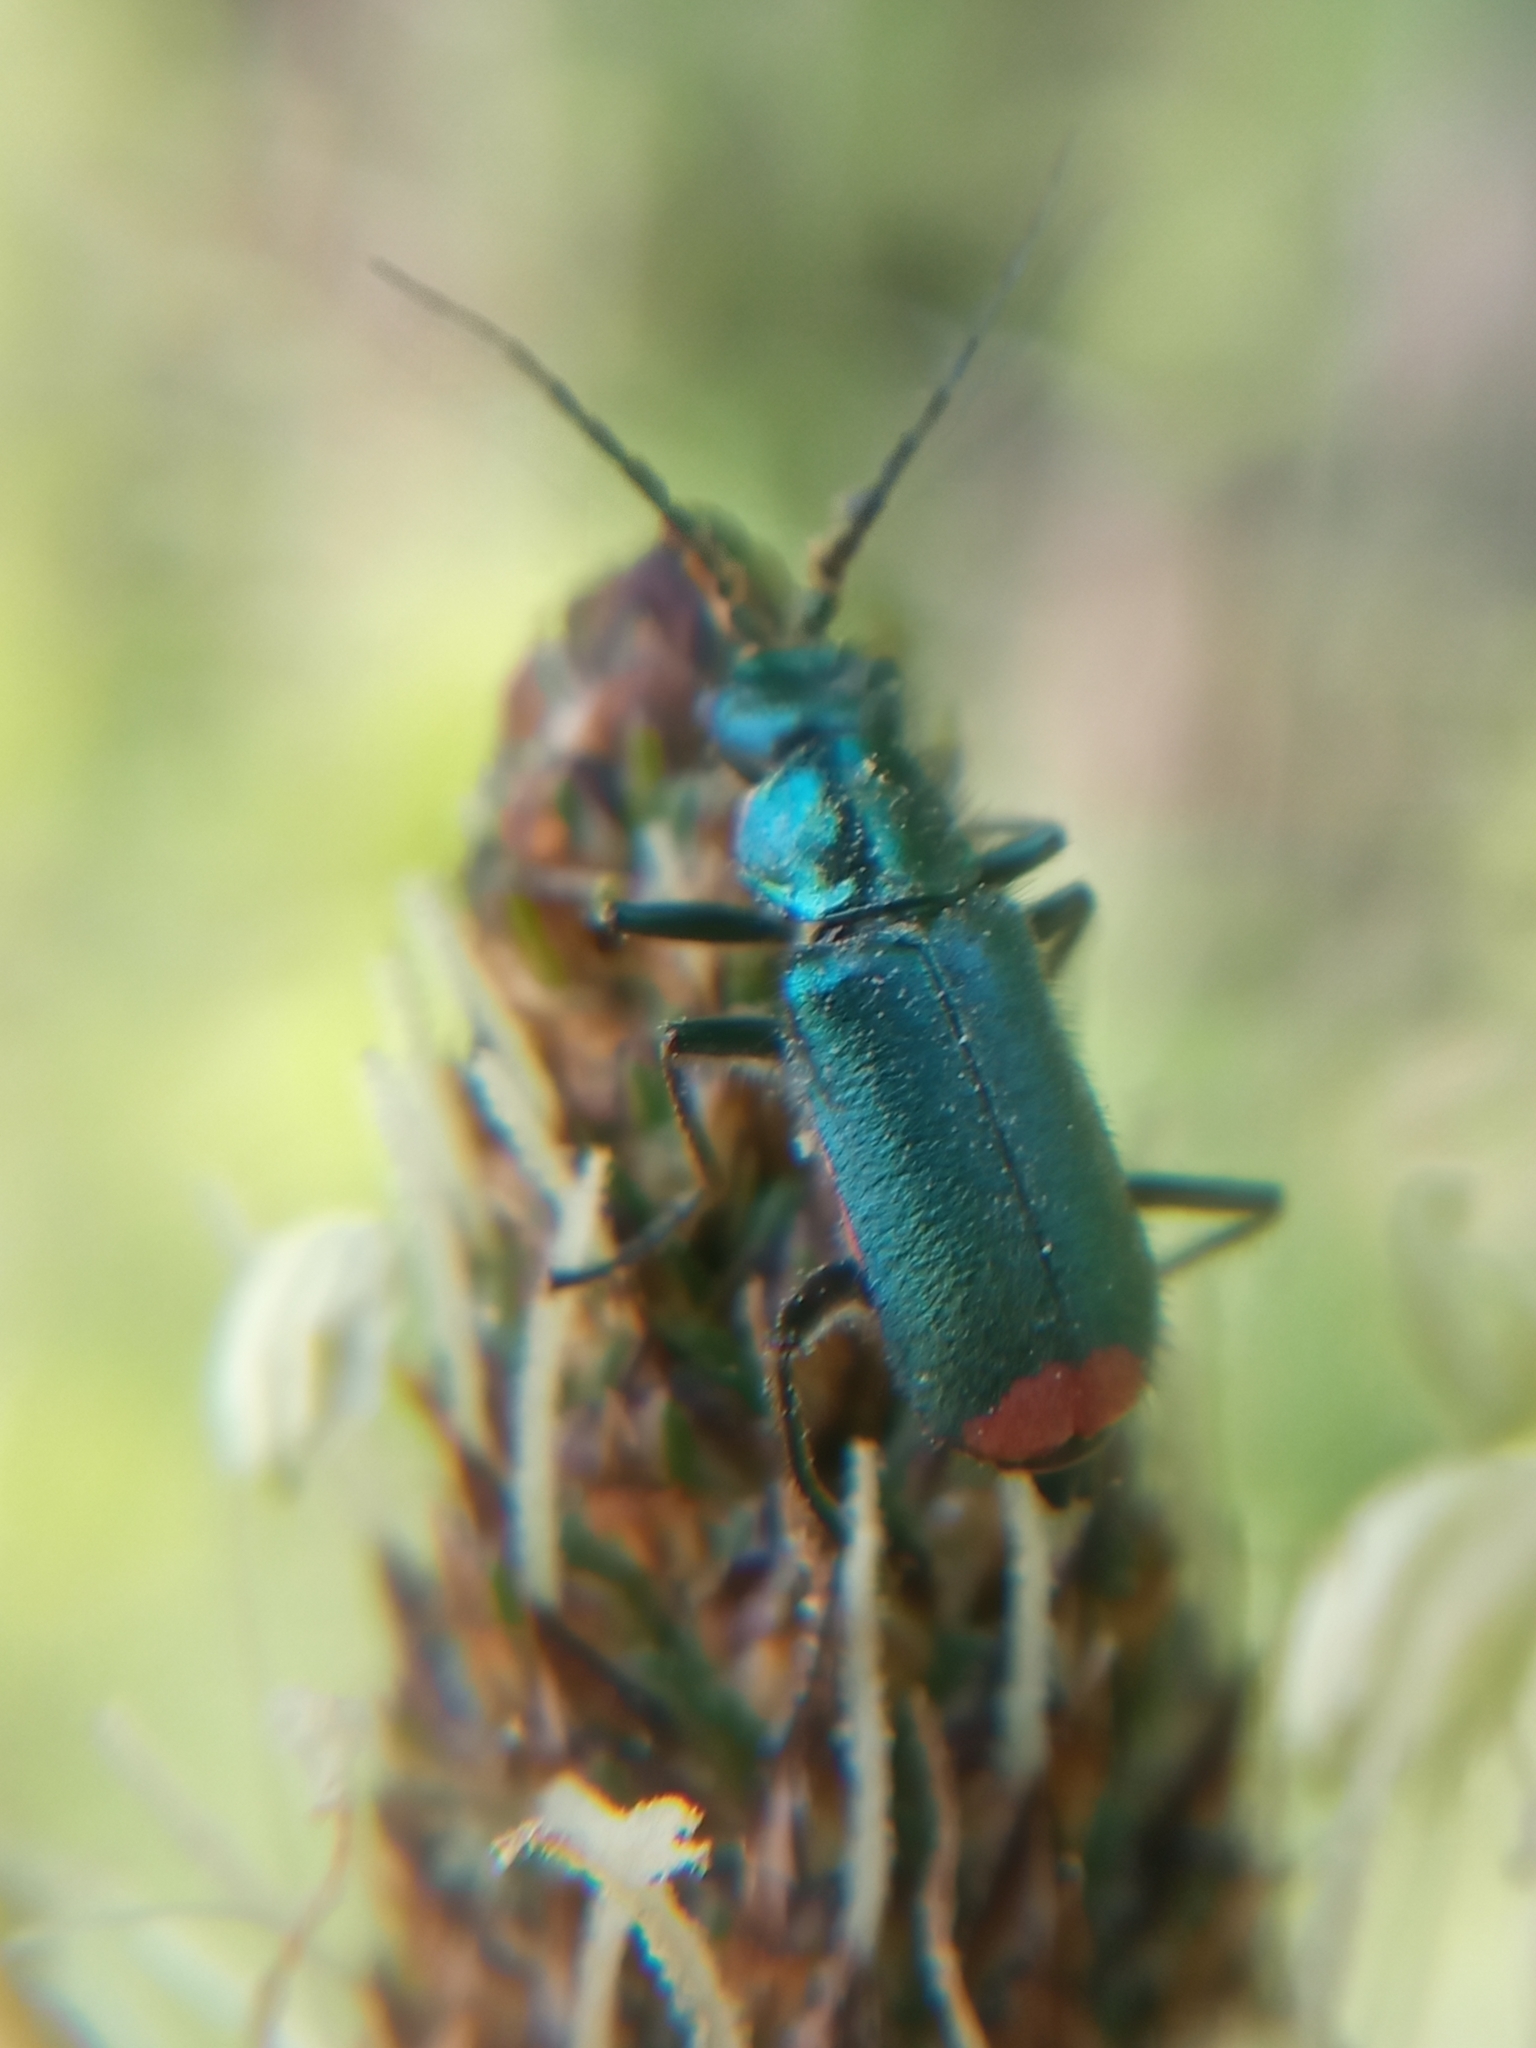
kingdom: Animalia
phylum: Arthropoda
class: Insecta
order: Coleoptera
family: Melyridae
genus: Malachius
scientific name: Malachius bipustulatus
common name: Malachite beetle
